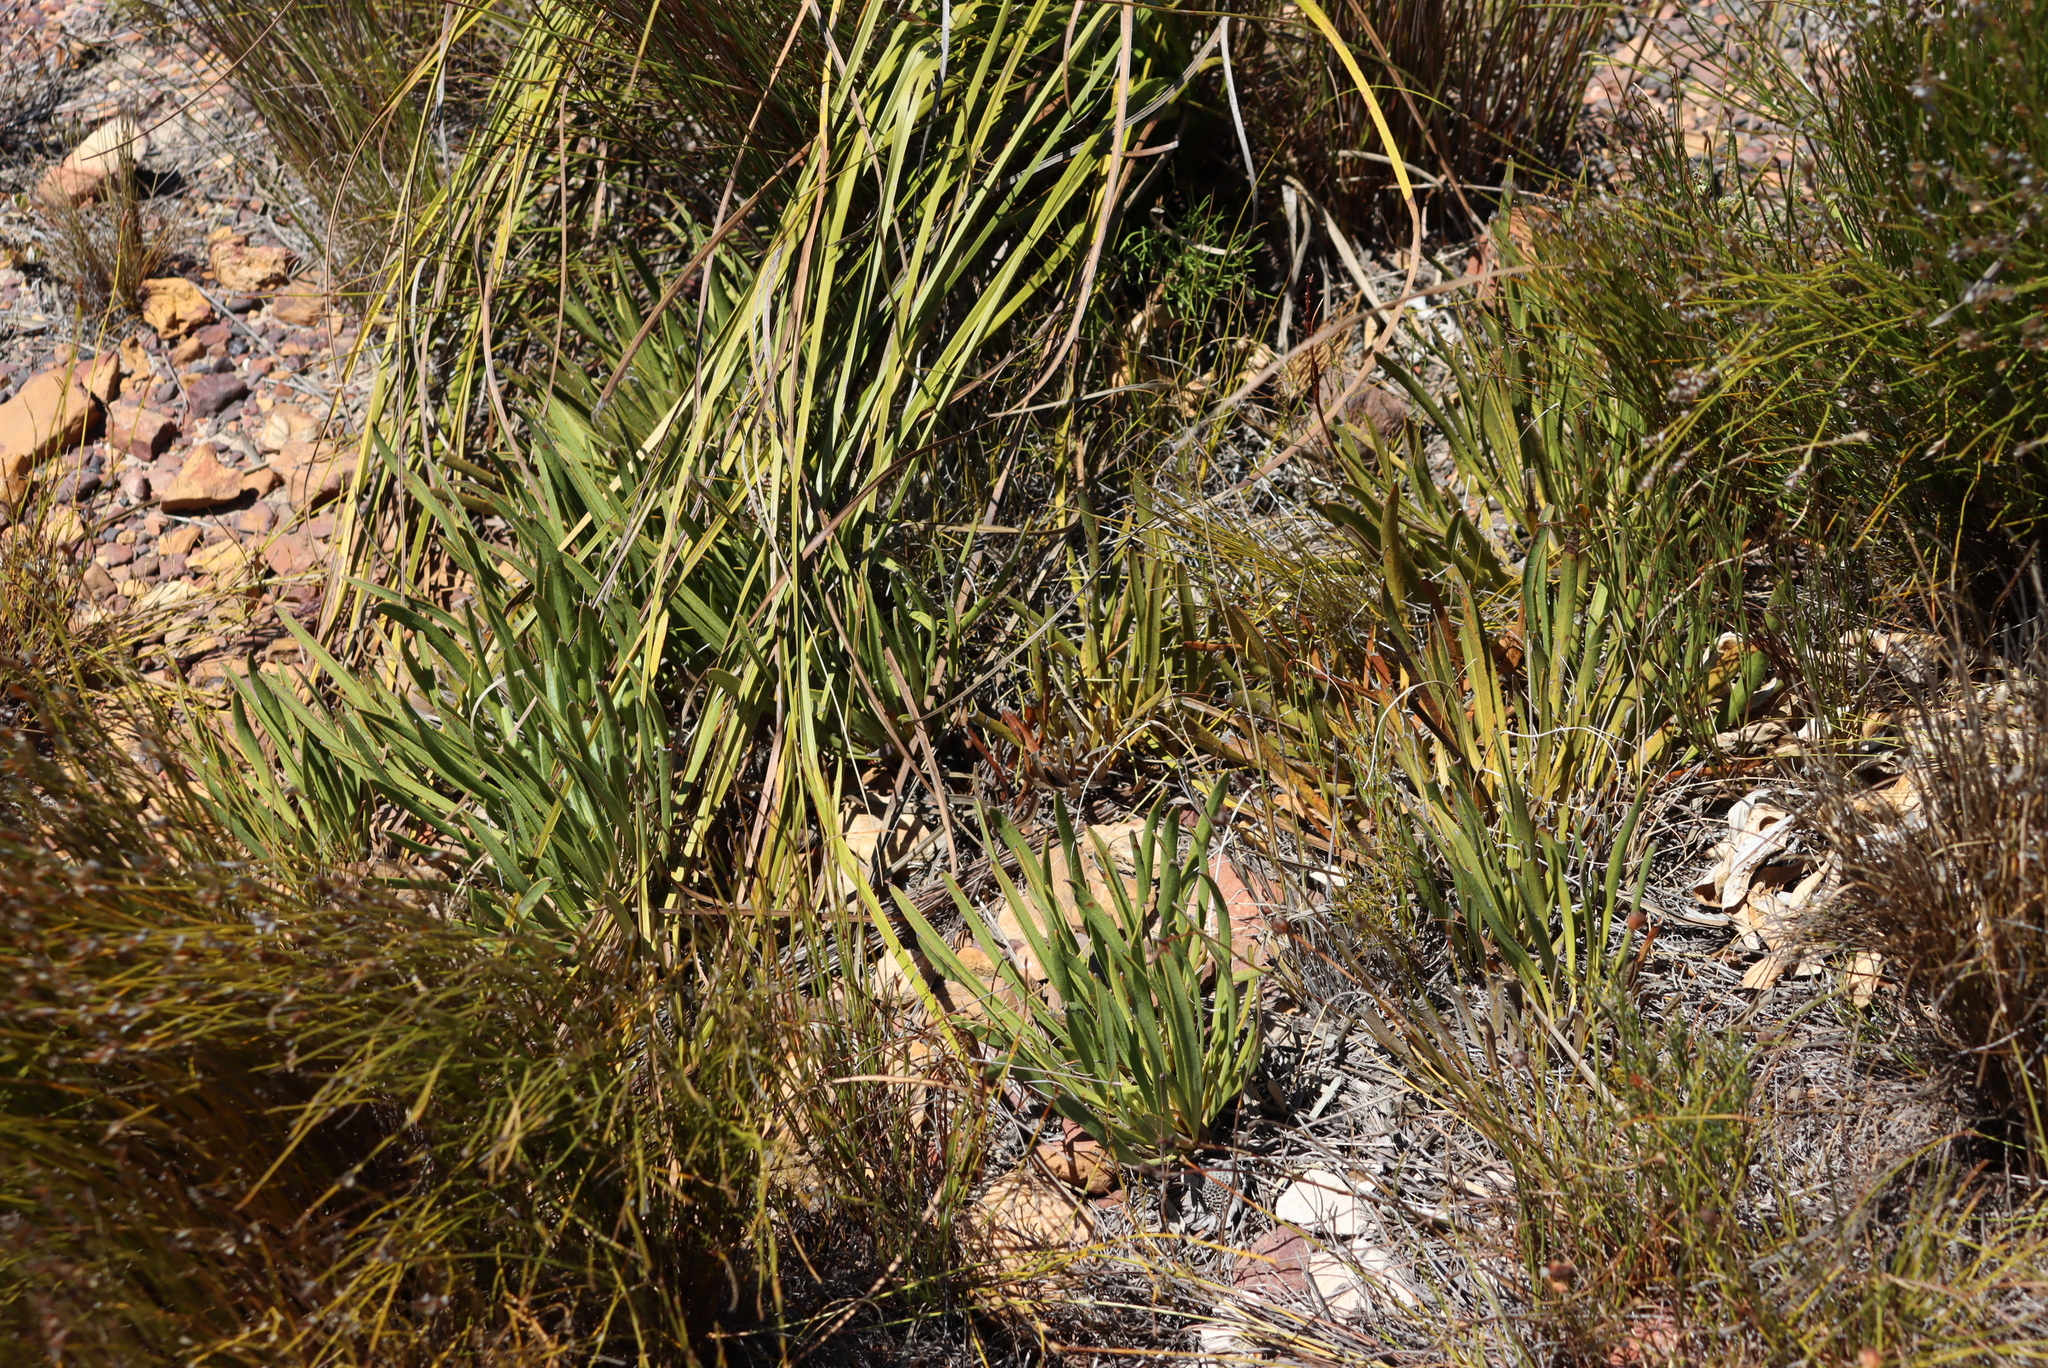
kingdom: Plantae
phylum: Tracheophyta
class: Magnoliopsida
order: Proteales
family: Proteaceae
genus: Protea
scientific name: Protea scabra
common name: Sandpaper-leaf sugarbush
